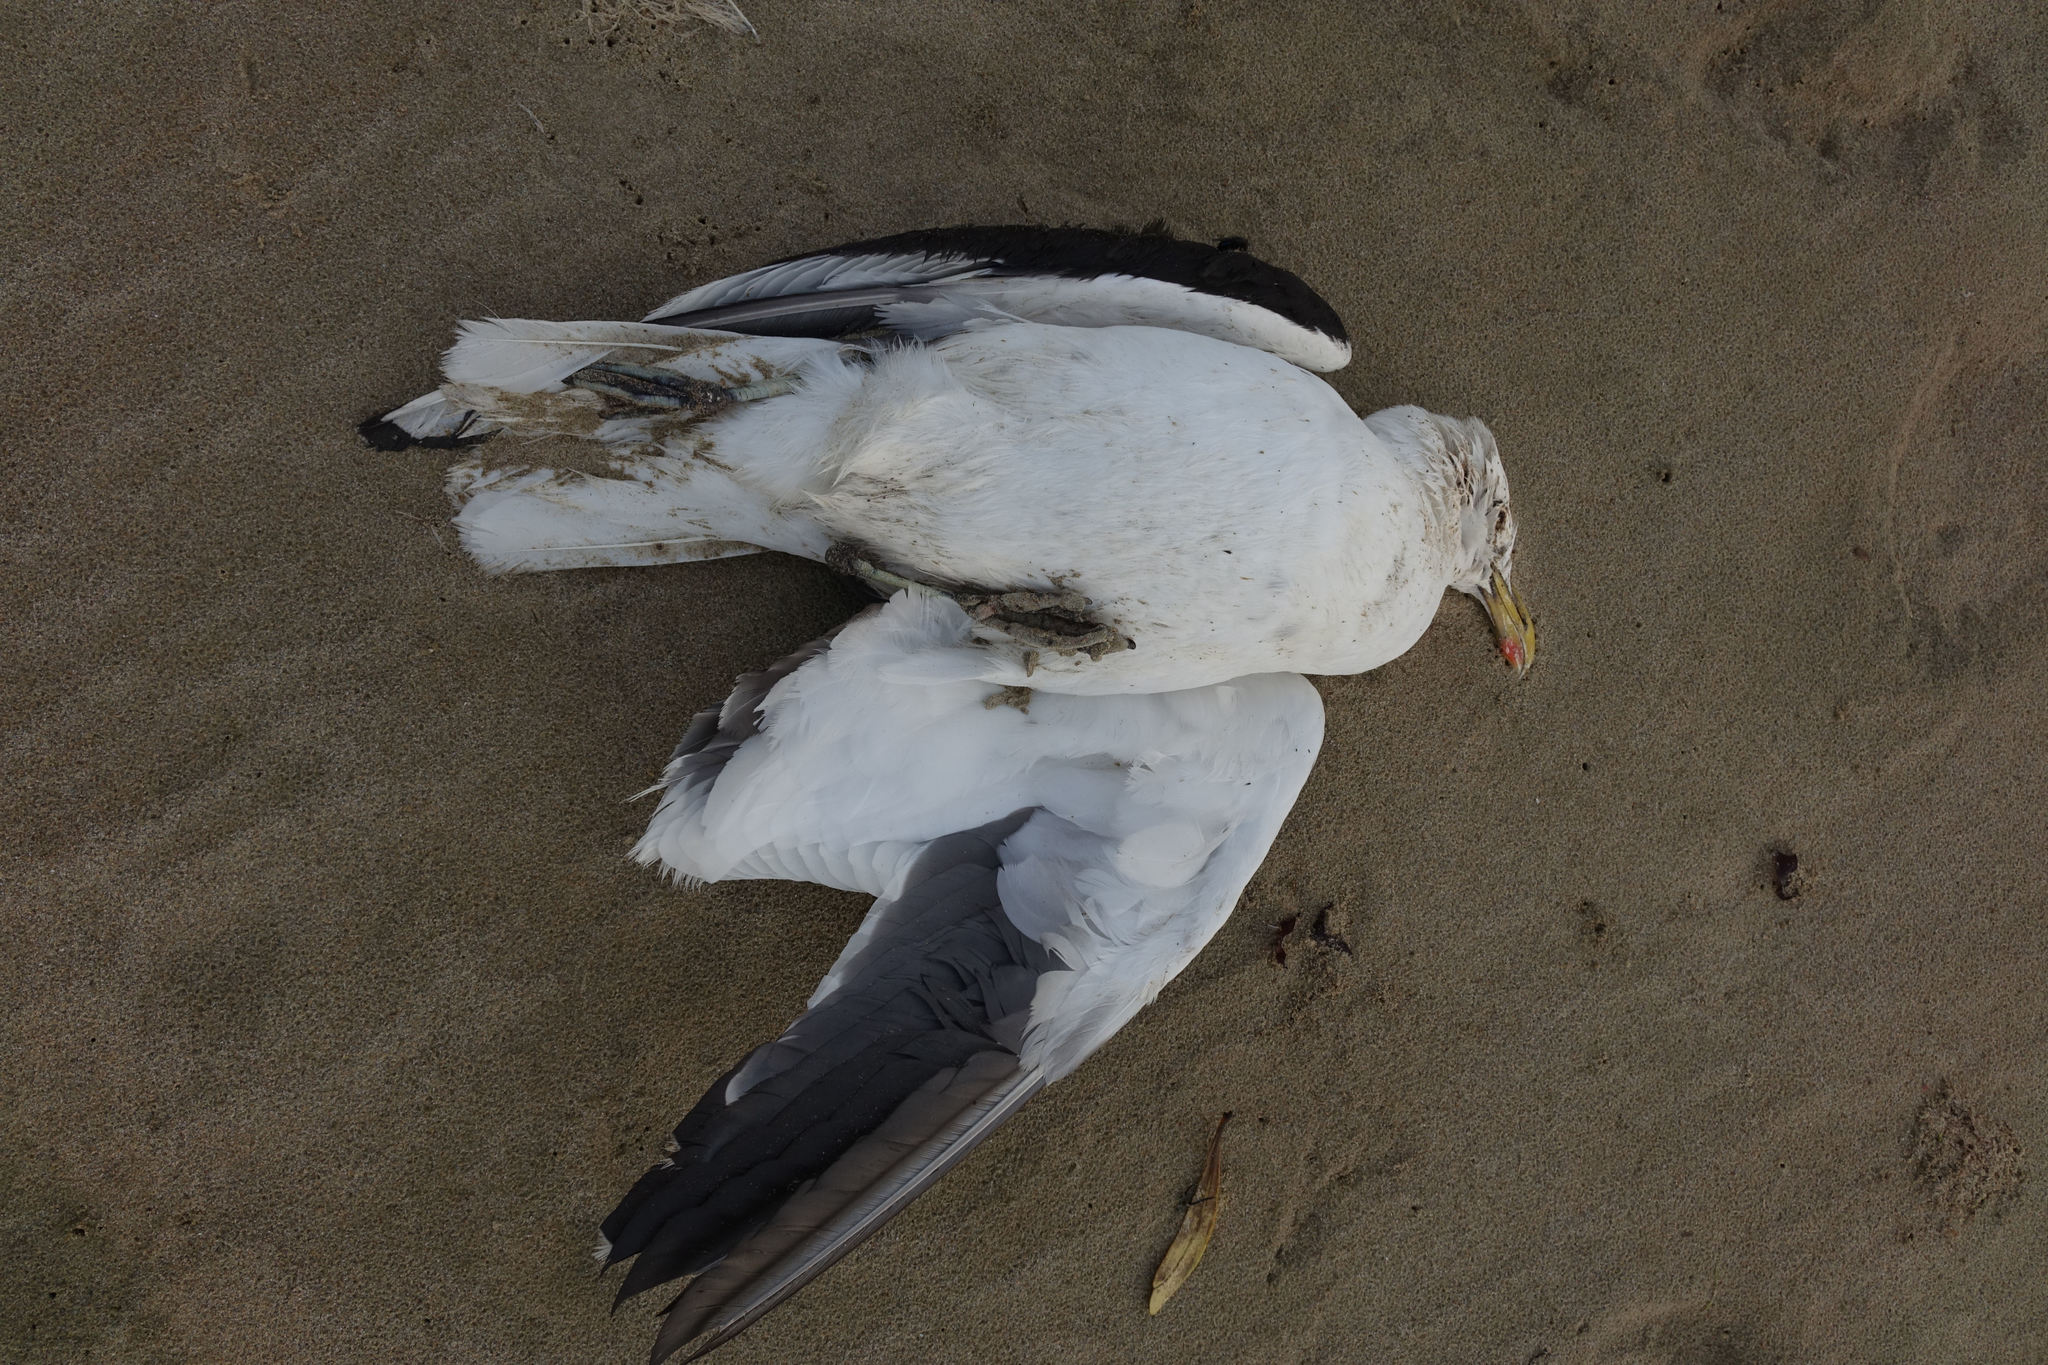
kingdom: Animalia
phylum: Chordata
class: Aves
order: Charadriiformes
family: Laridae
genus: Larus
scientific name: Larus dominicanus
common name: Kelp gull
